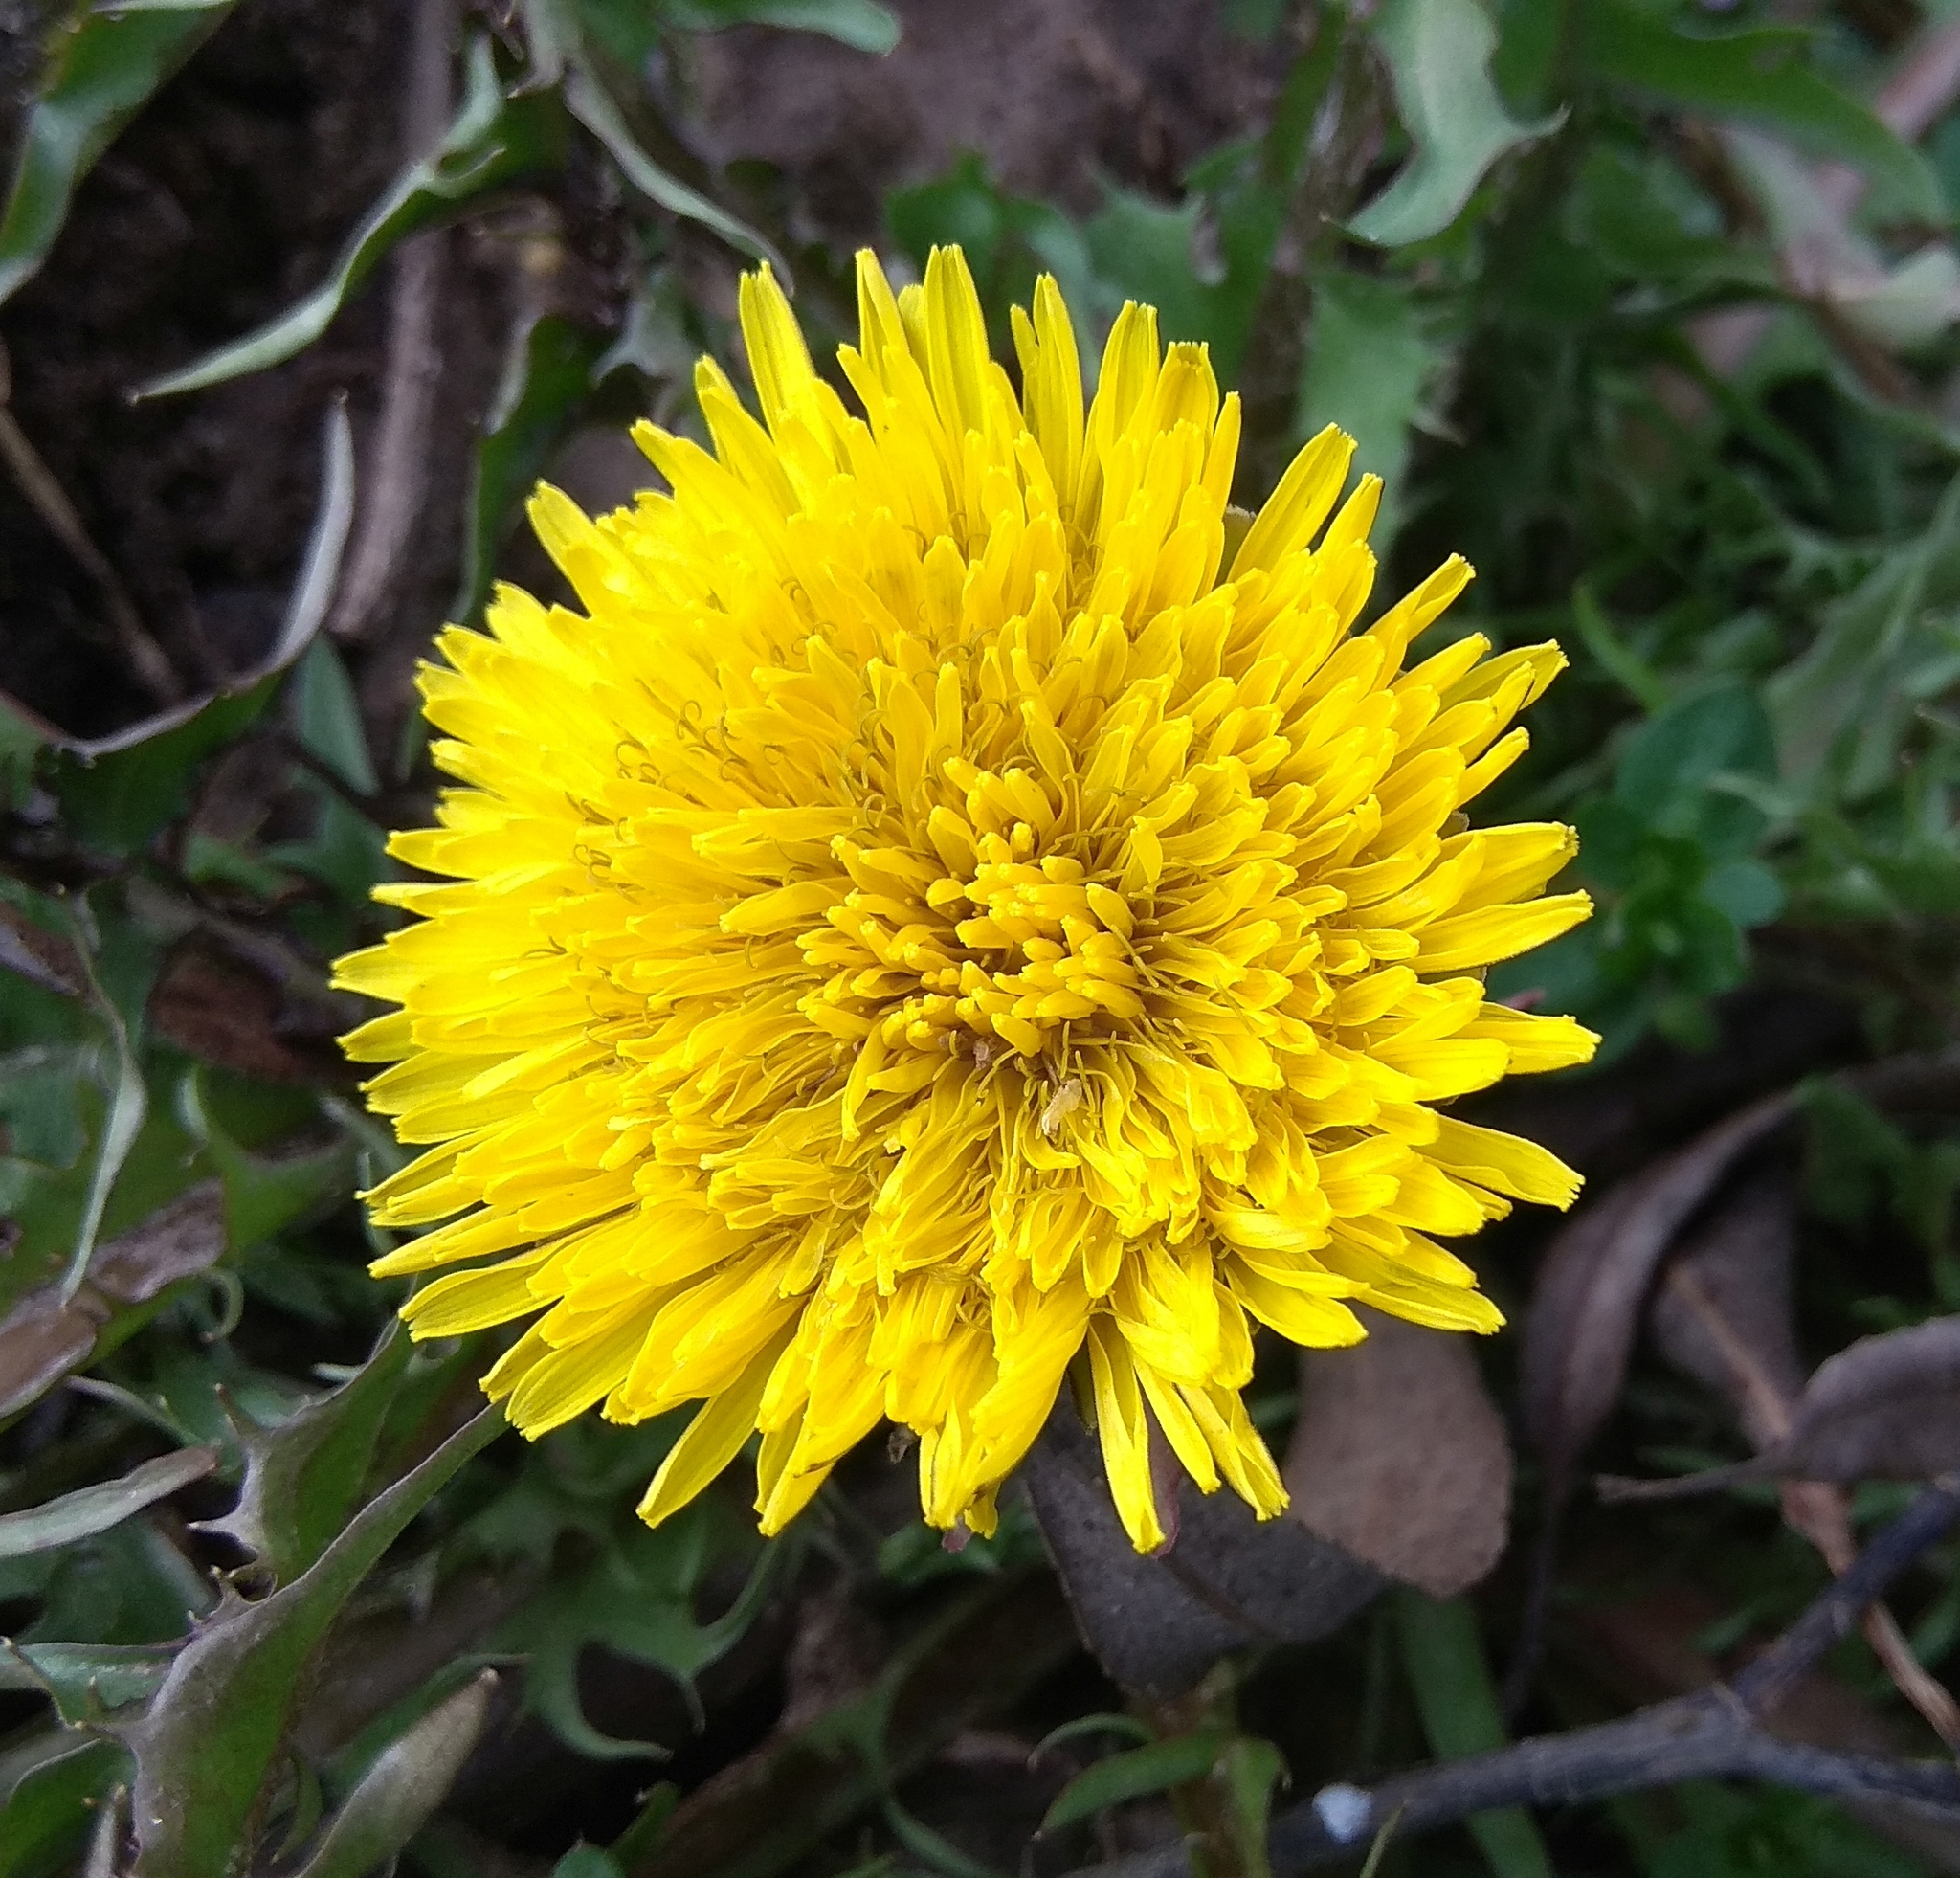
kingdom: Plantae
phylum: Tracheophyta
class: Magnoliopsida
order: Asterales
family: Asteraceae
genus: Taraxacum
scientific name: Taraxacum officinale
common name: Common dandelion
